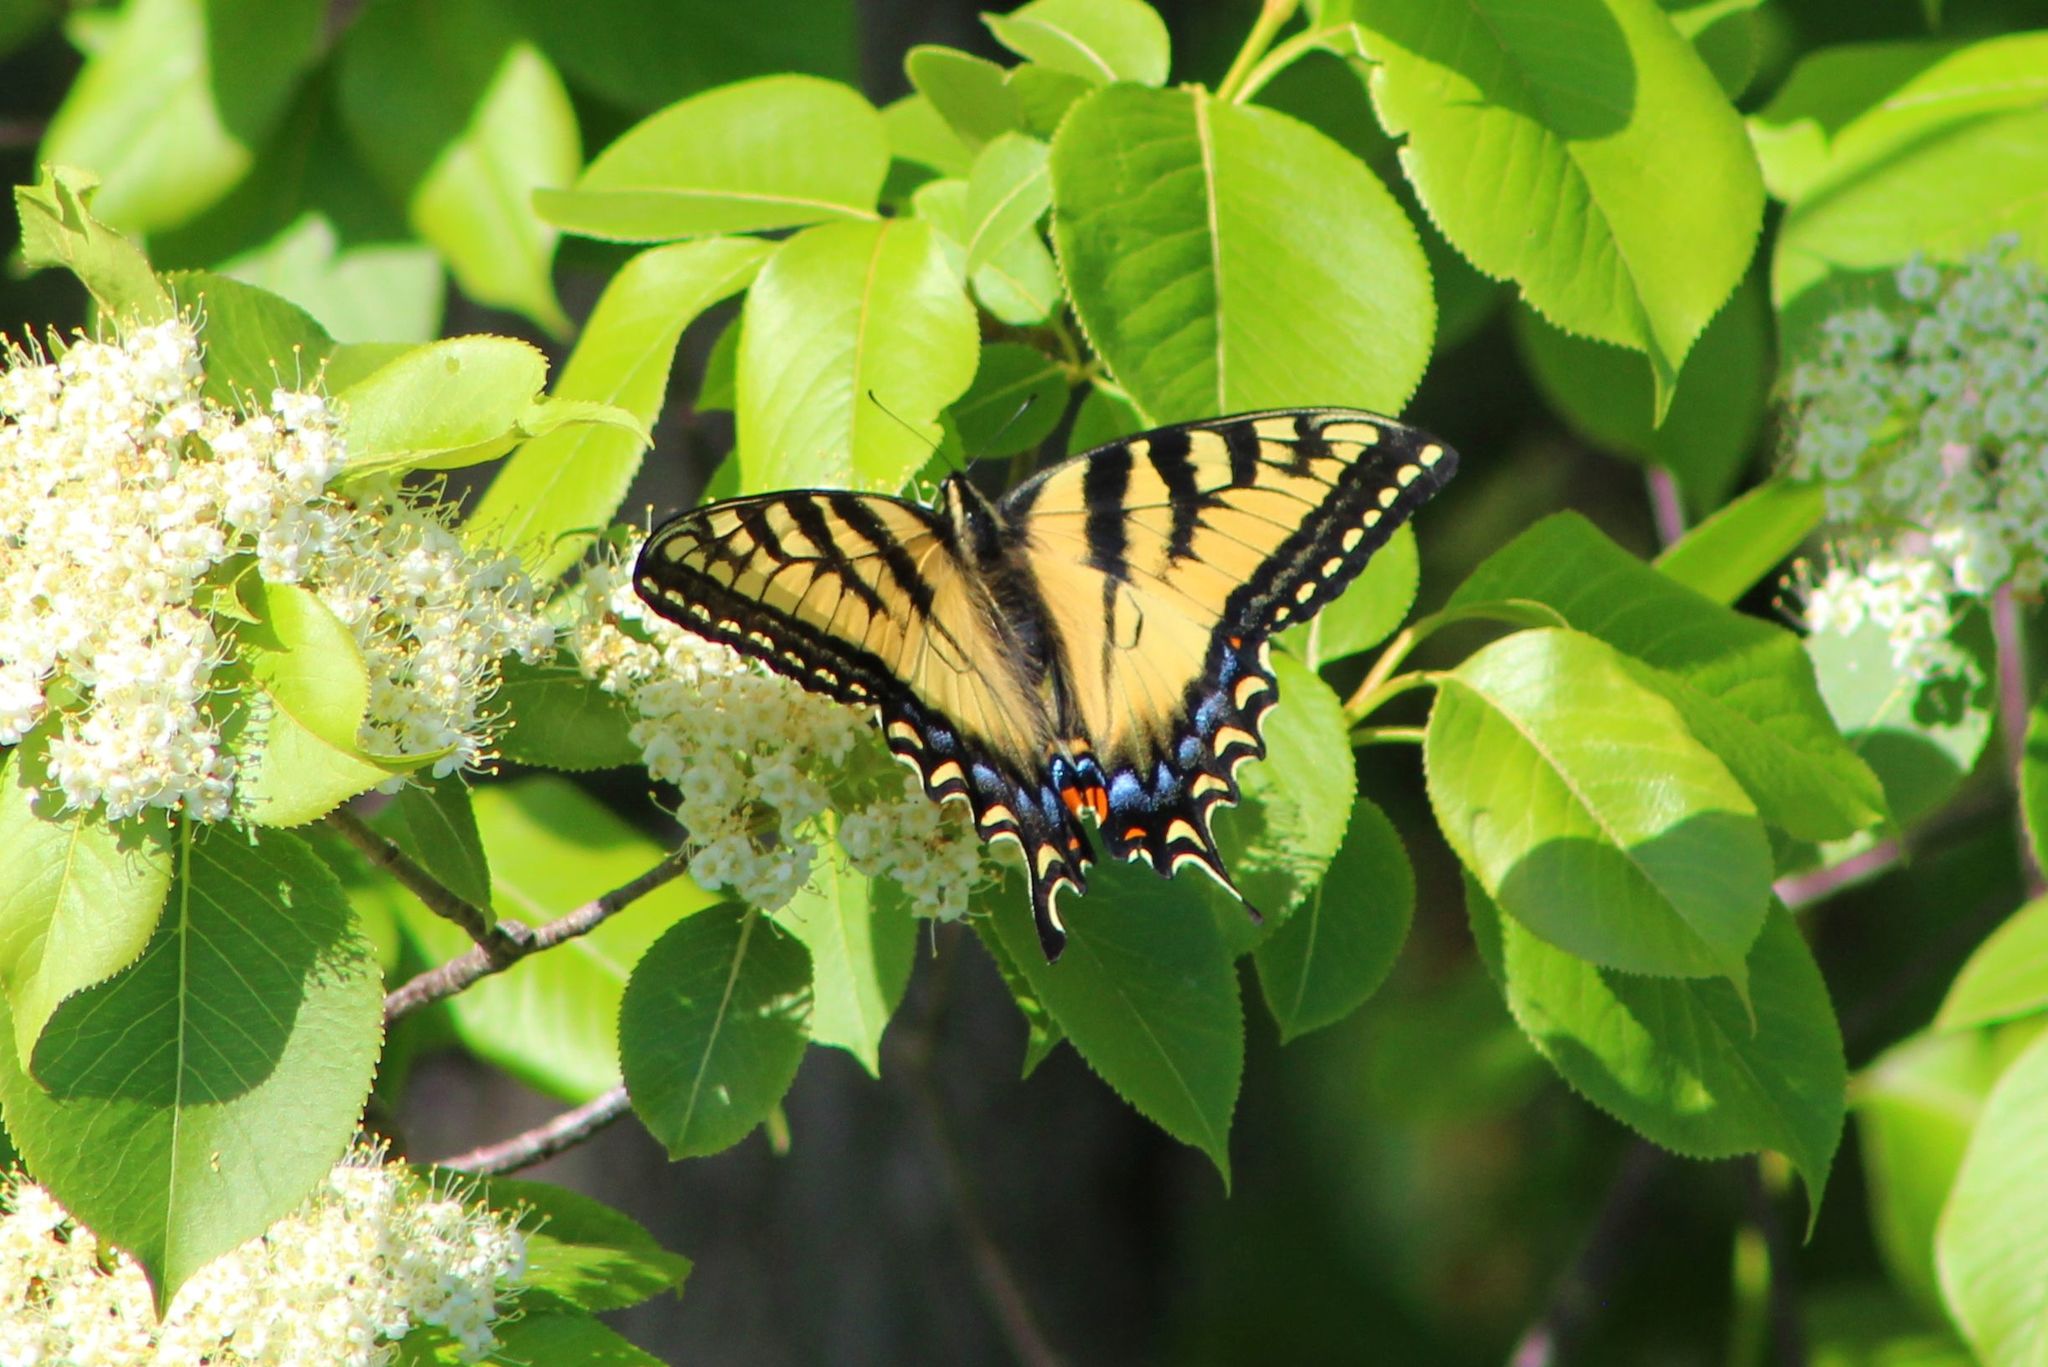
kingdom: Animalia
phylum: Arthropoda
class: Insecta
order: Lepidoptera
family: Papilionidae
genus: Papilio
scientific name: Papilio canadensis
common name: Canadian tiger swallowtail
